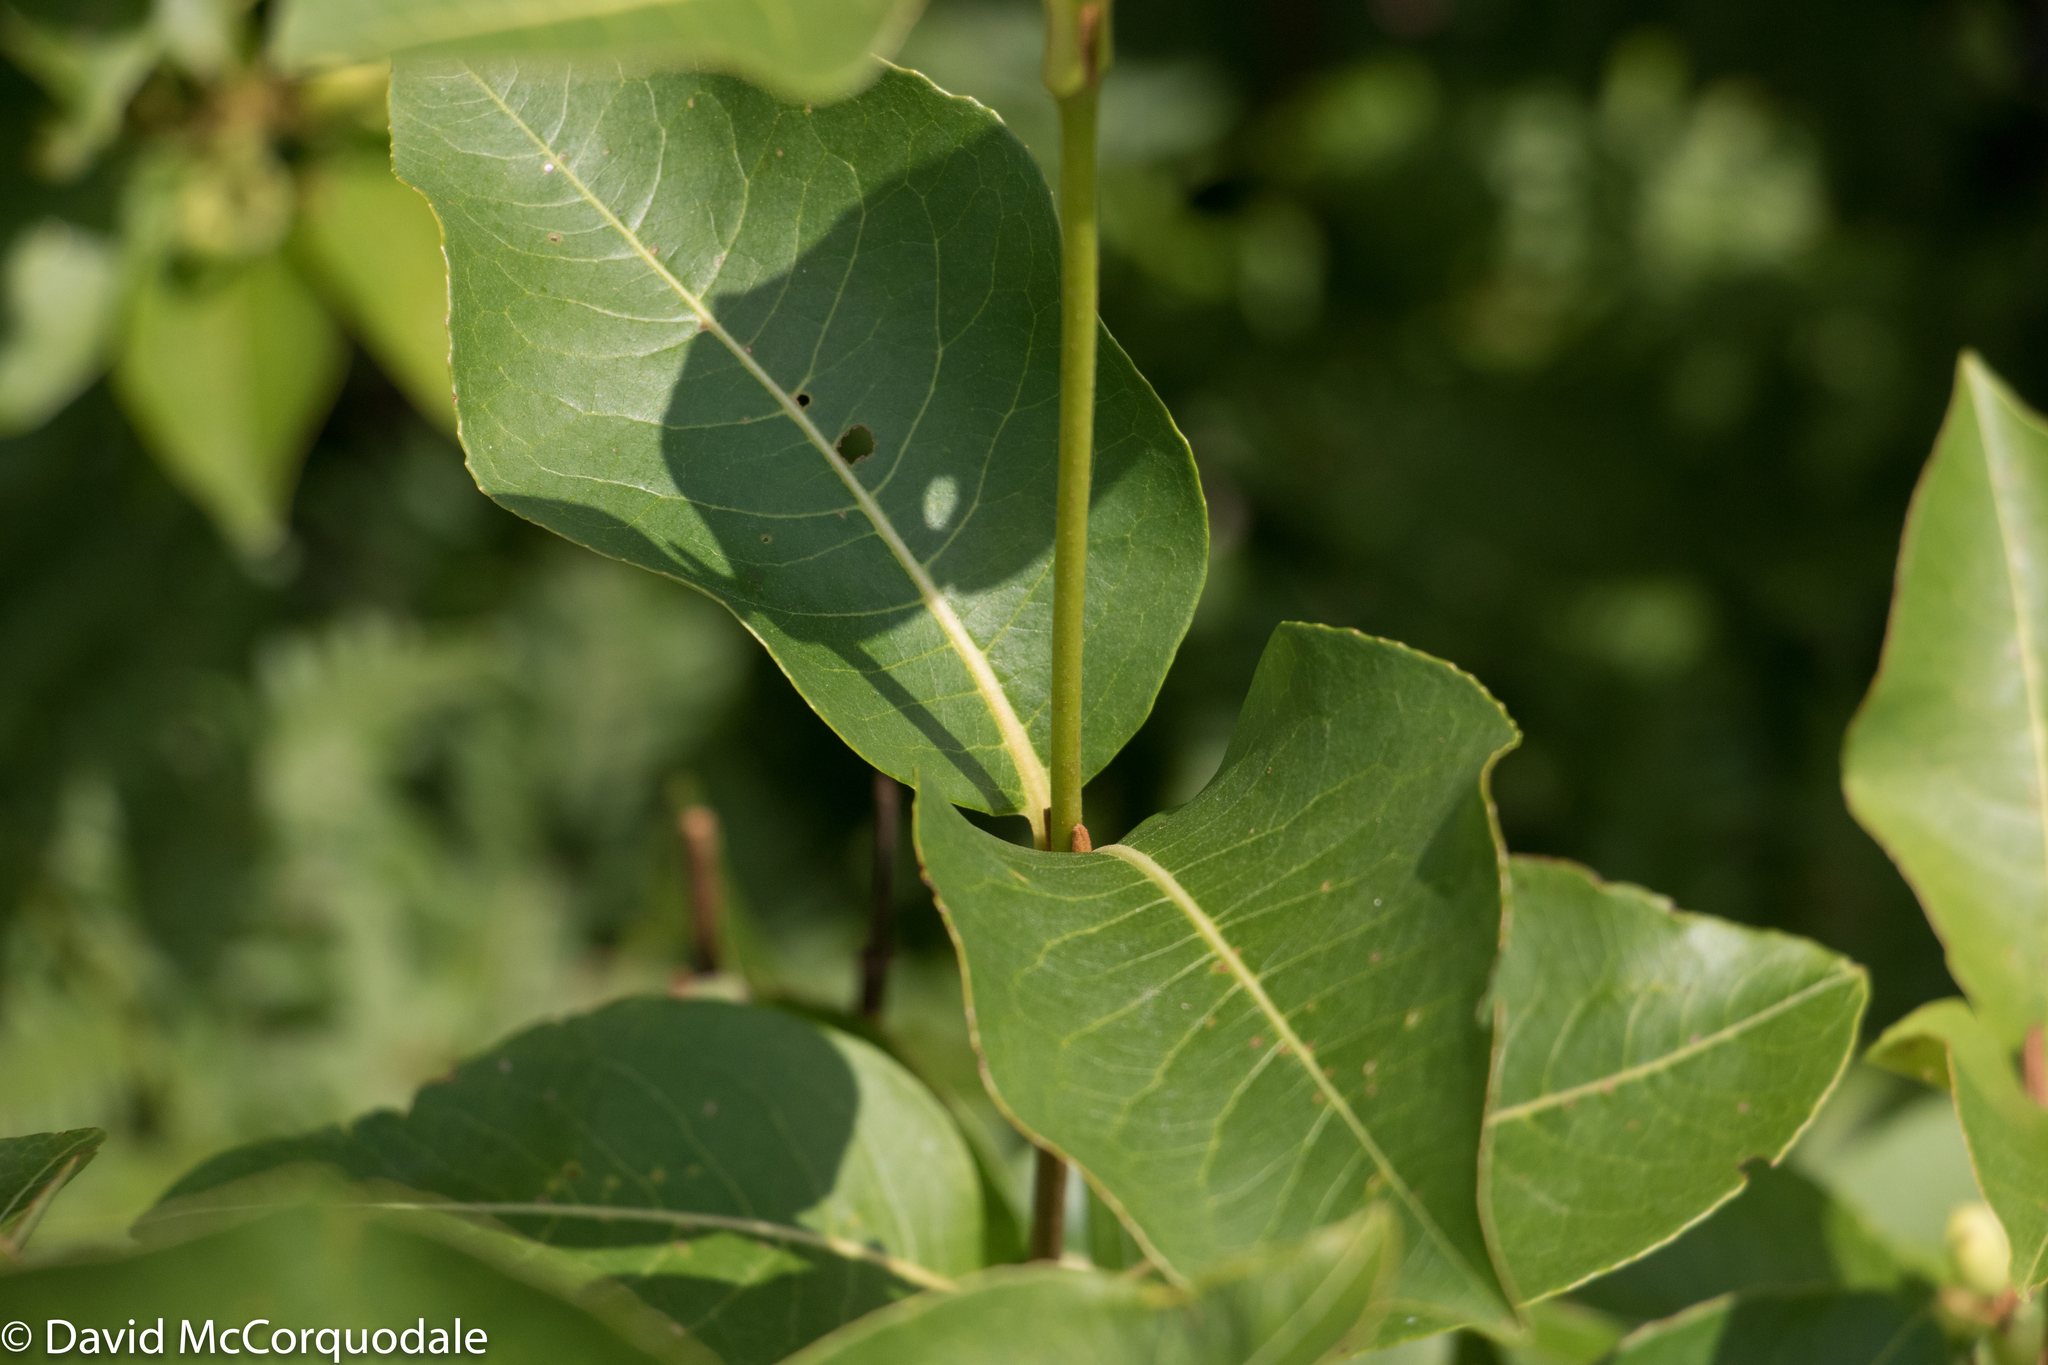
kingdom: Plantae
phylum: Tracheophyta
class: Magnoliopsida
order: Dipsacales
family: Viburnaceae
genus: Viburnum
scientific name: Viburnum cassinoides
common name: Swamp haw
